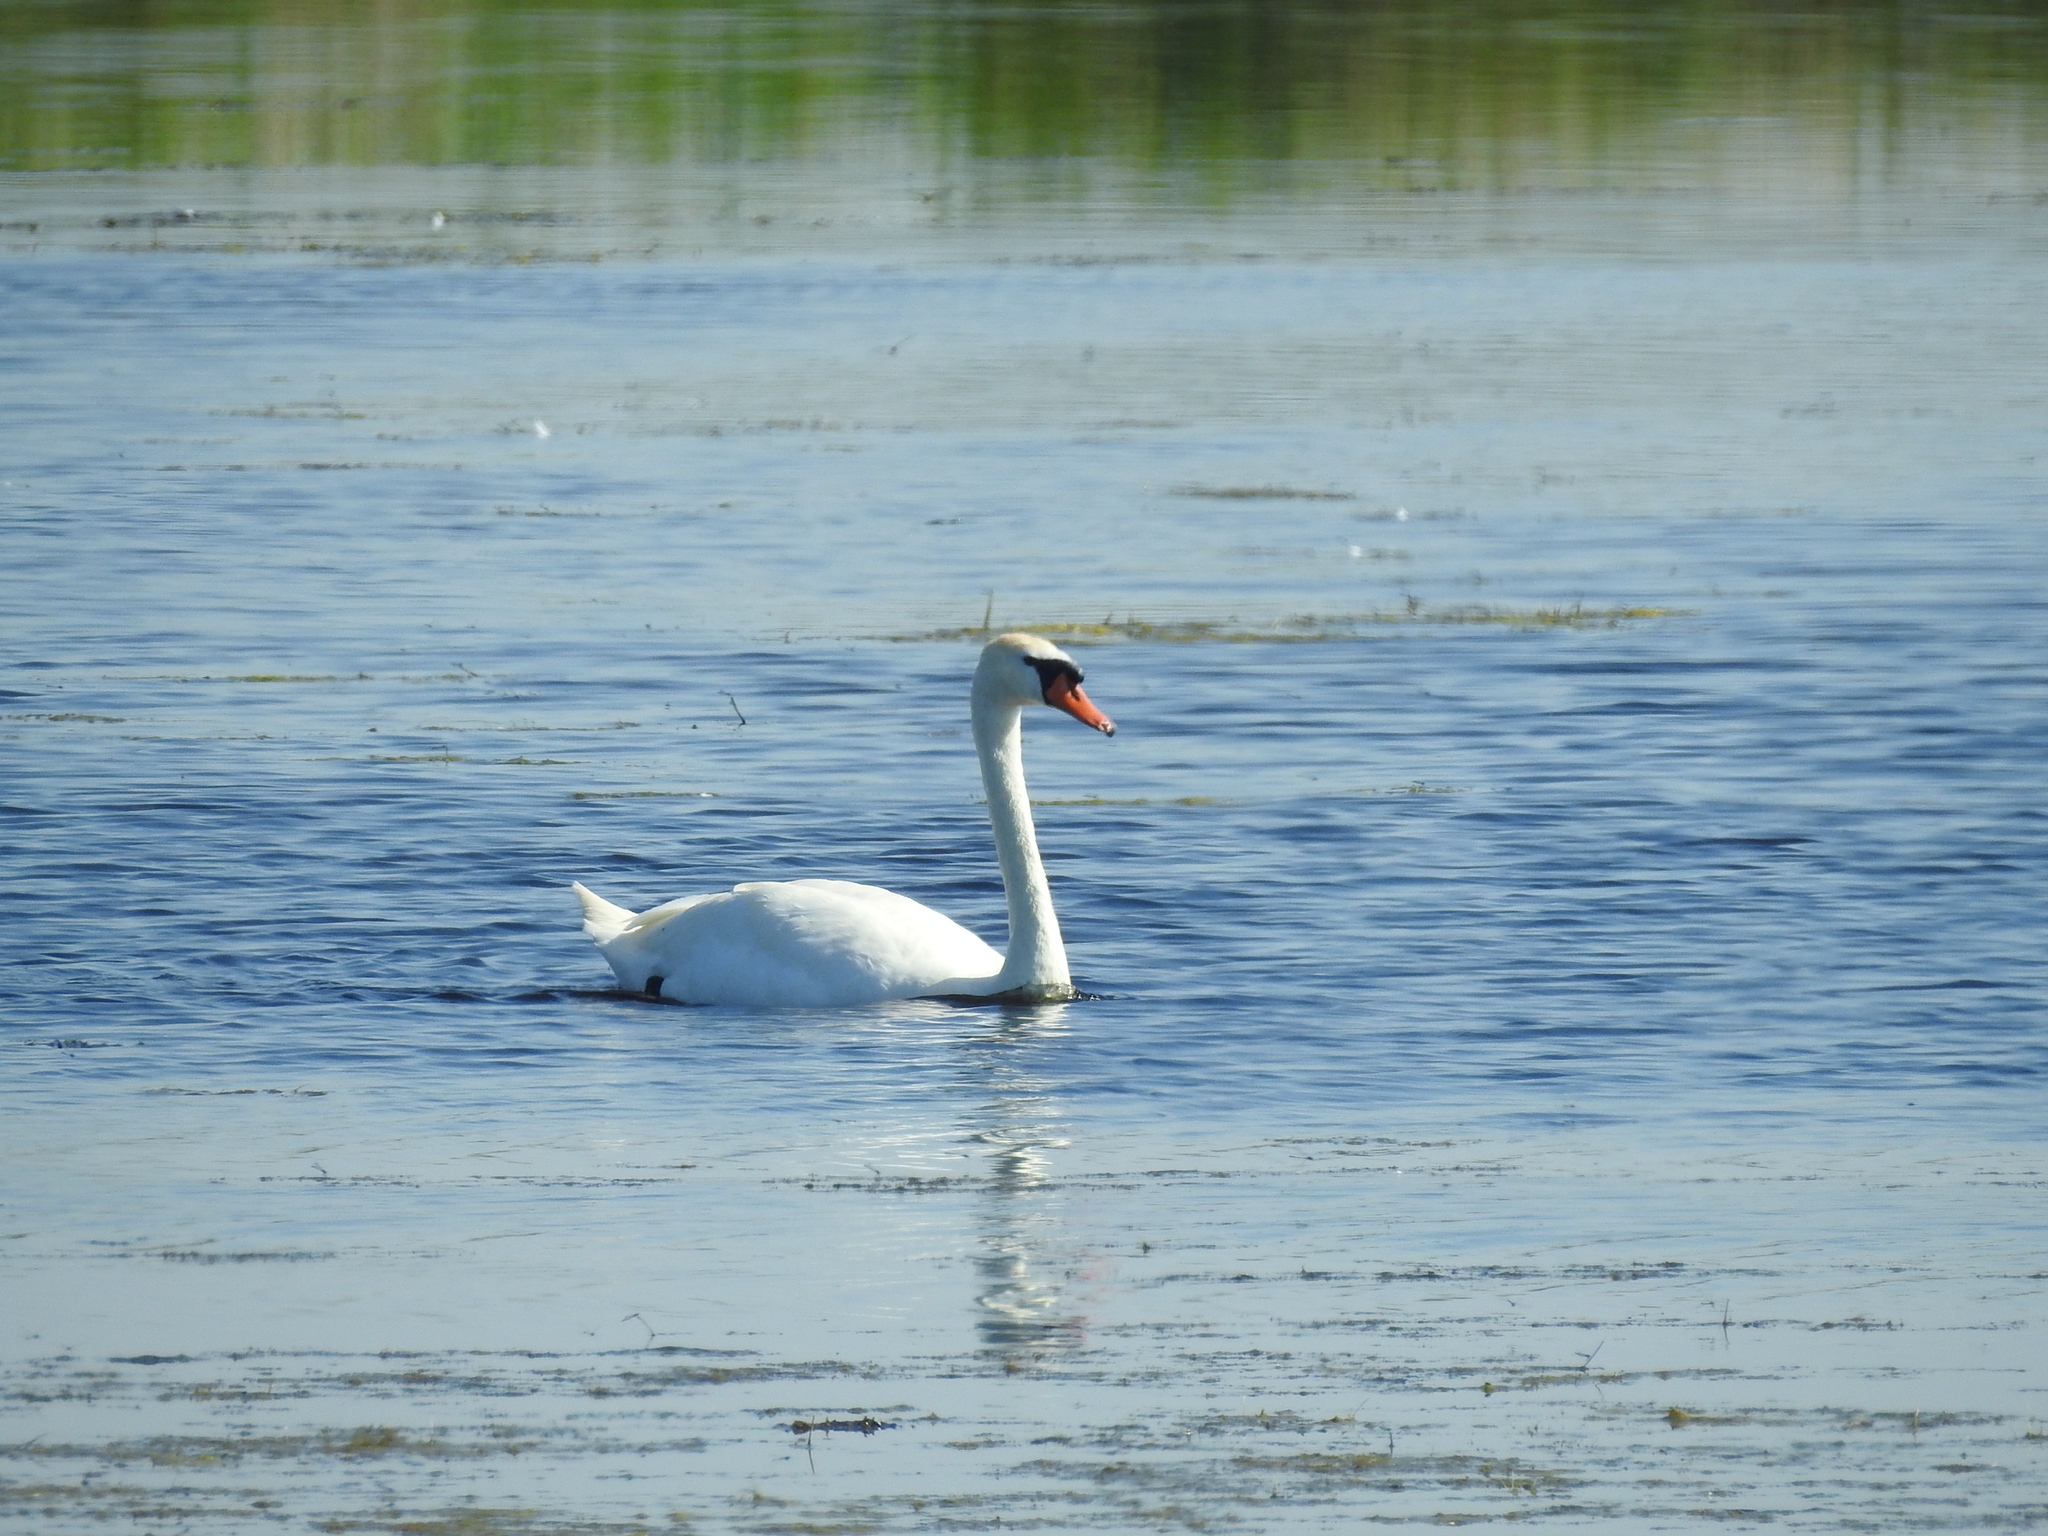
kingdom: Animalia
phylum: Chordata
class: Aves
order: Anseriformes
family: Anatidae
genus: Cygnus
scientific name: Cygnus olor
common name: Mute swan
